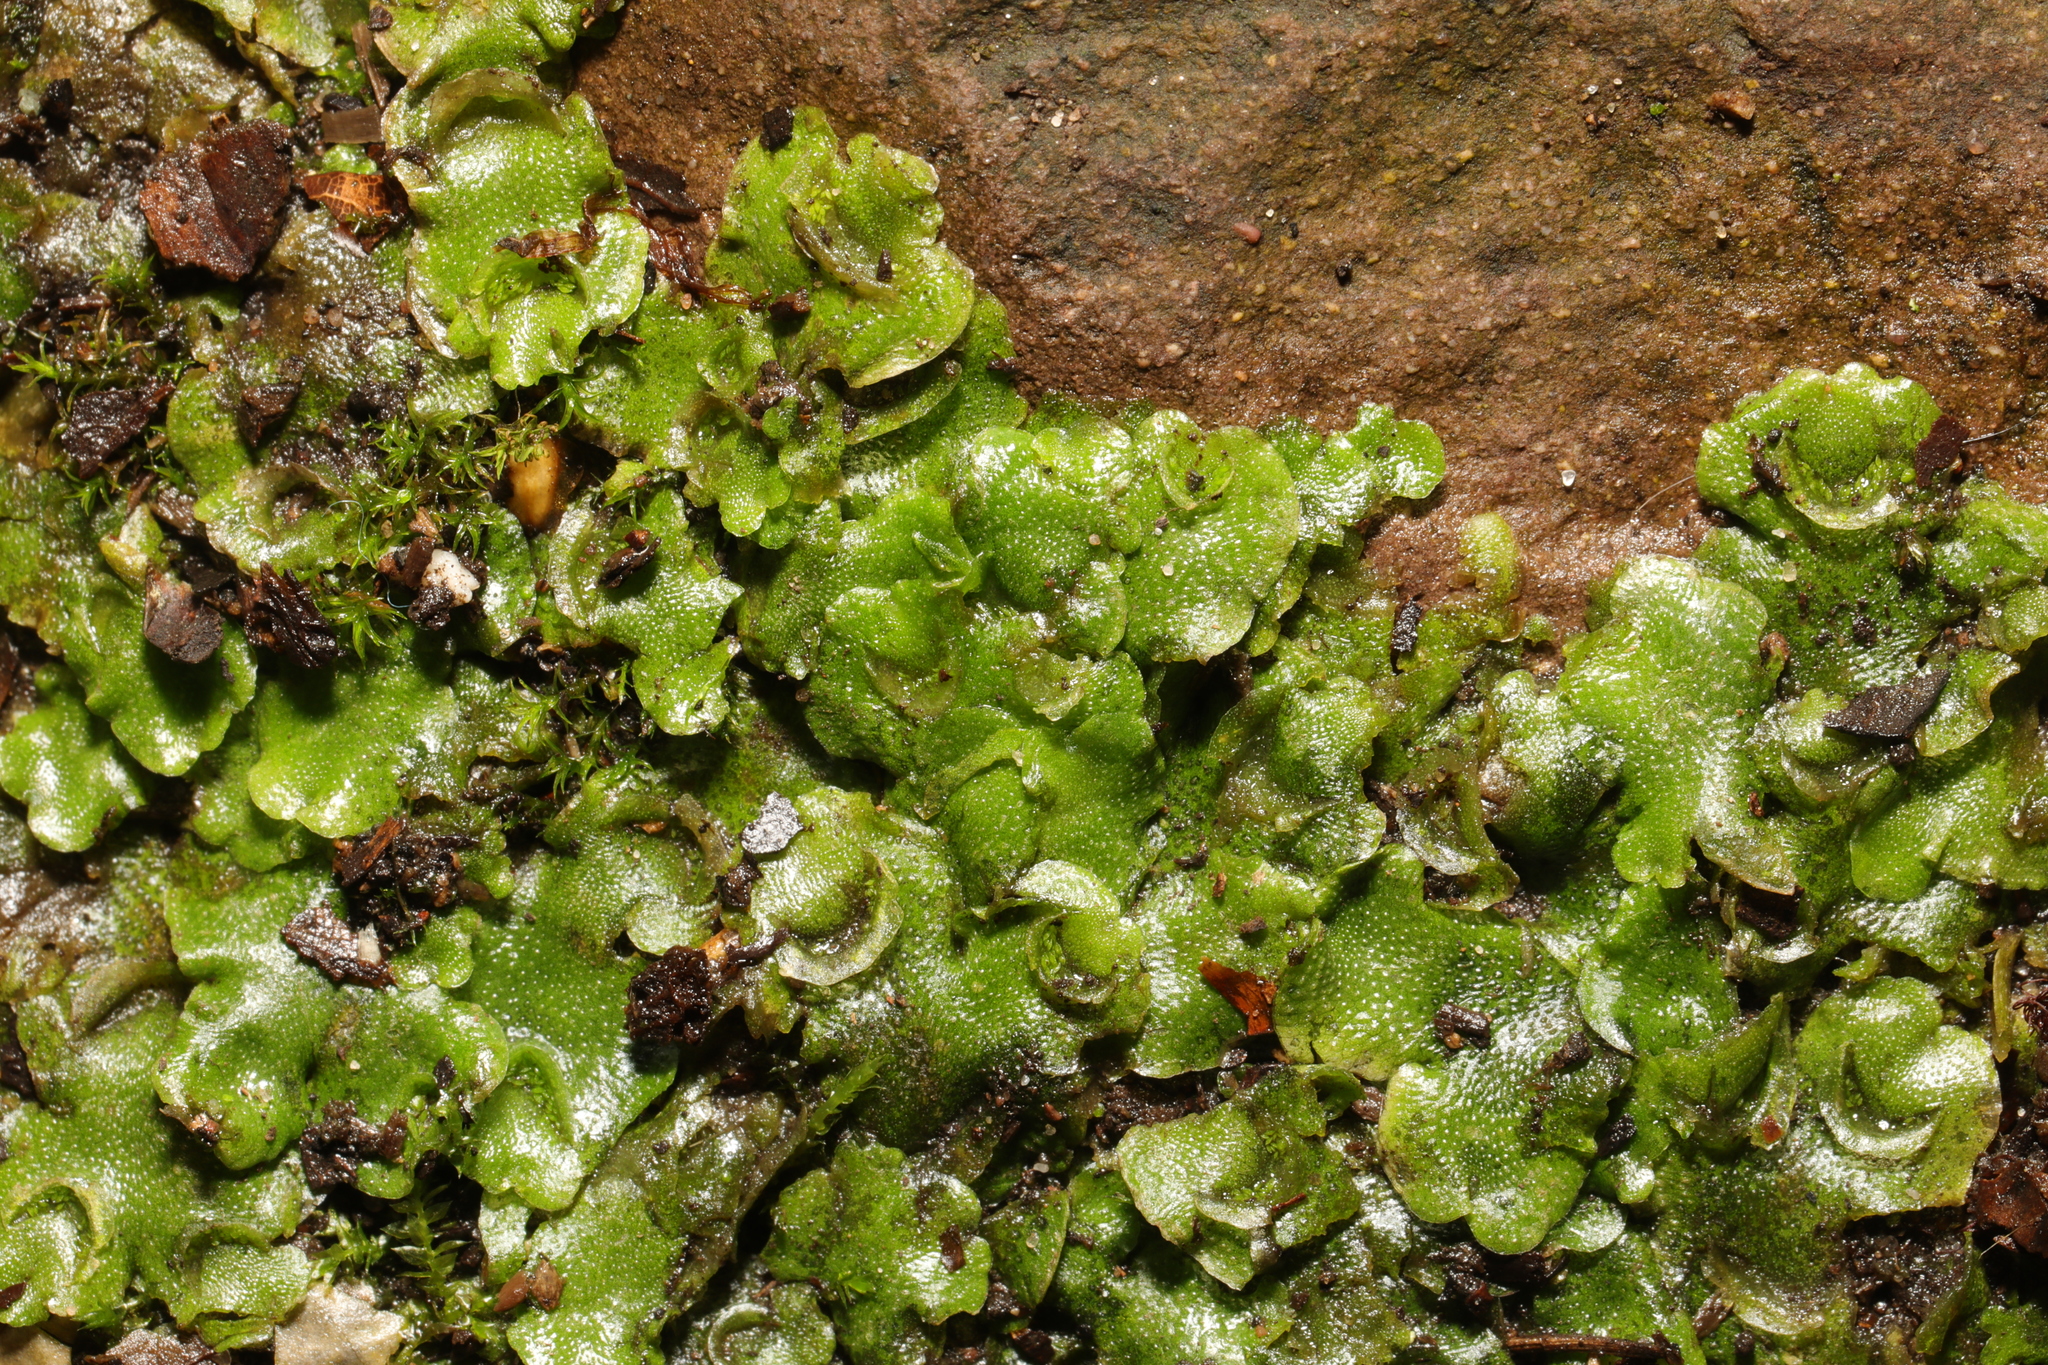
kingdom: Plantae
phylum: Marchantiophyta
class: Marchantiopsida
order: Lunulariales
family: Lunulariaceae
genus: Lunularia
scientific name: Lunularia cruciata
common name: Crescent-cup liverwort
